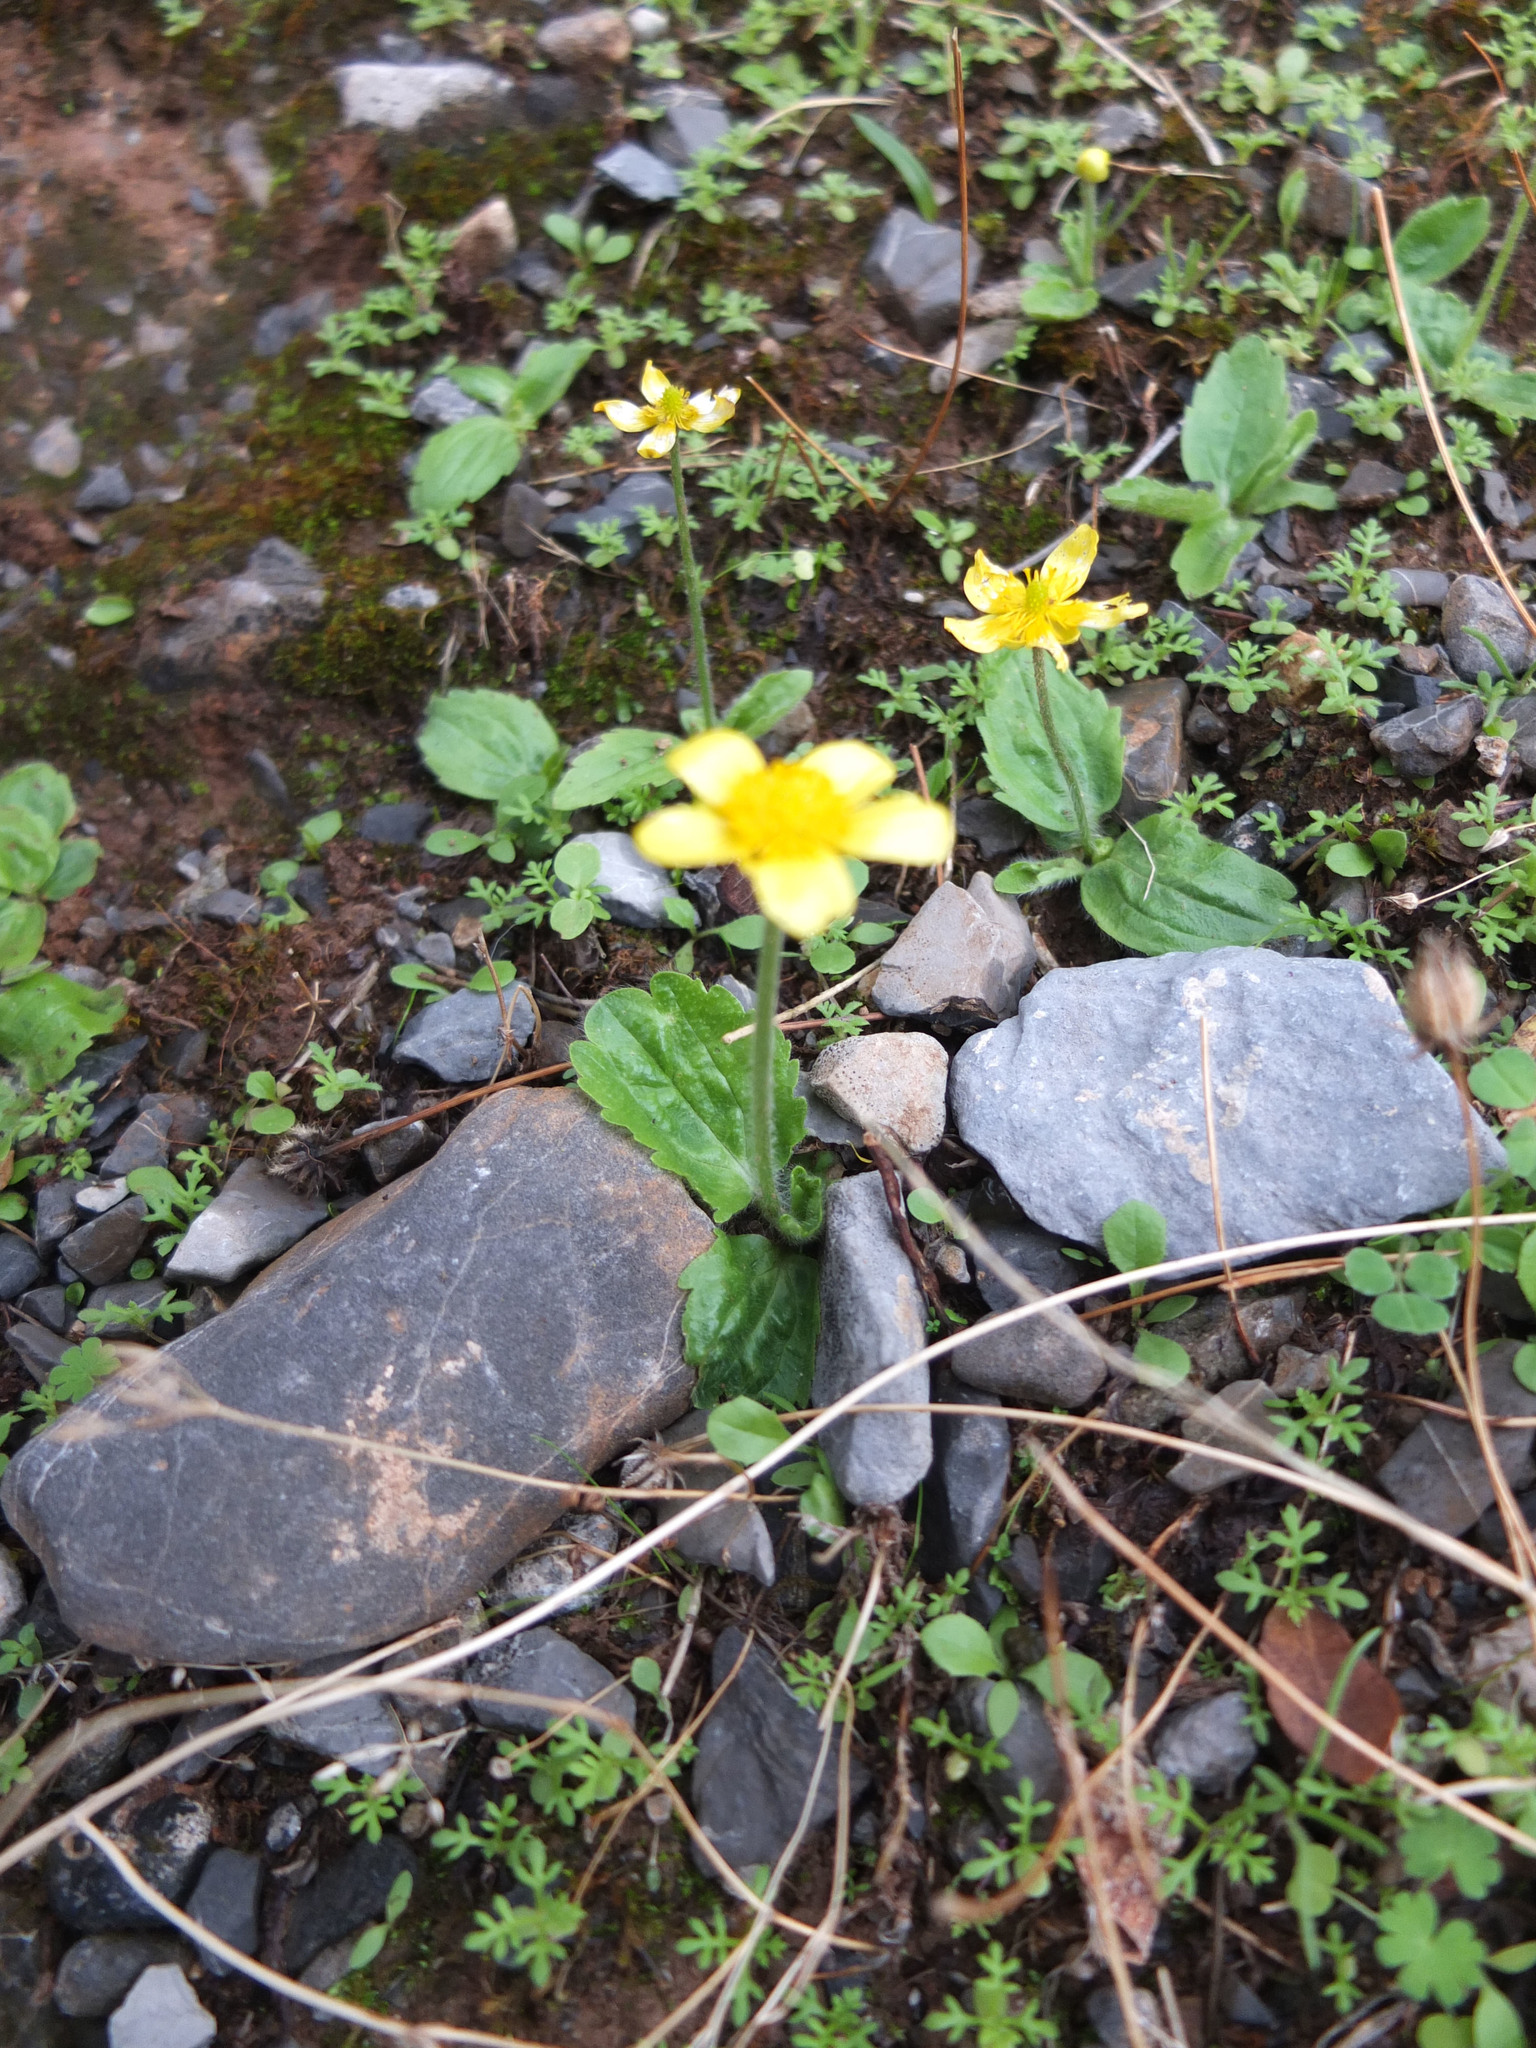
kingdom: Plantae
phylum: Tracheophyta
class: Magnoliopsida
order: Ranunculales
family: Ranunculaceae
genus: Ranunculus
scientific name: Ranunculus bullatus
